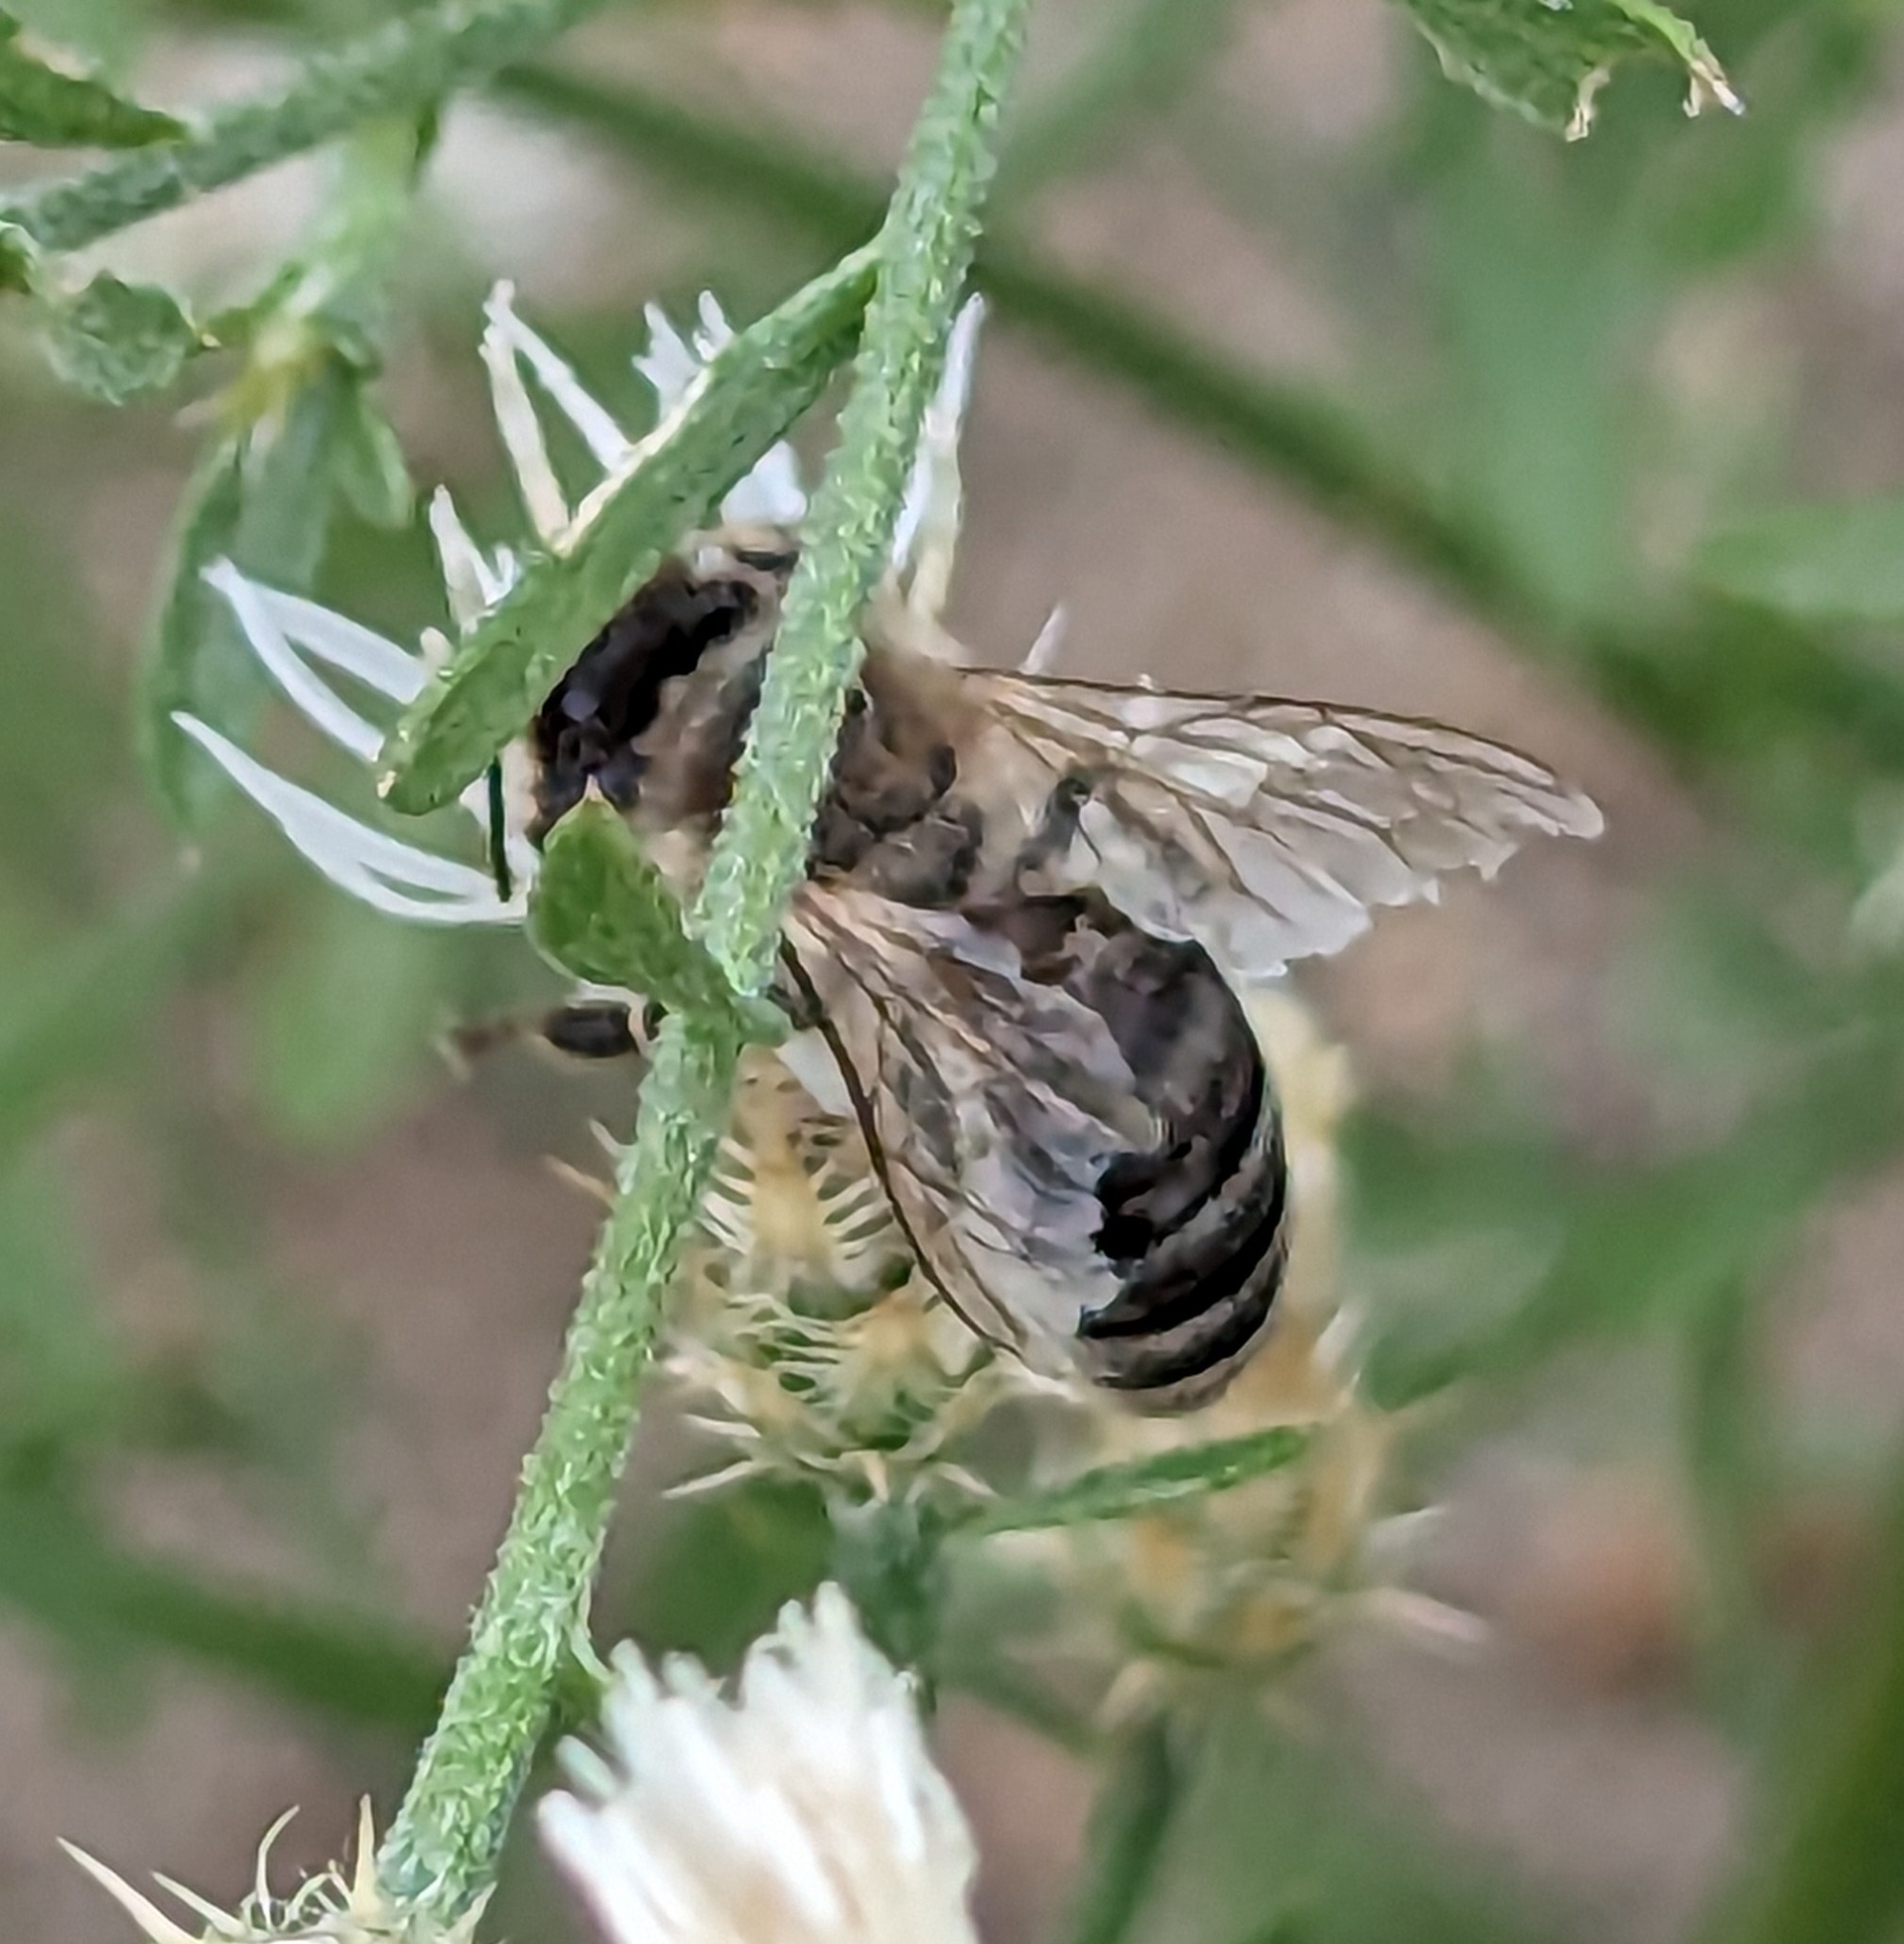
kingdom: Animalia
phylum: Arthropoda
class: Insecta
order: Hymenoptera
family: Apidae
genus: Apis
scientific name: Apis mellifera
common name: Honey bee
